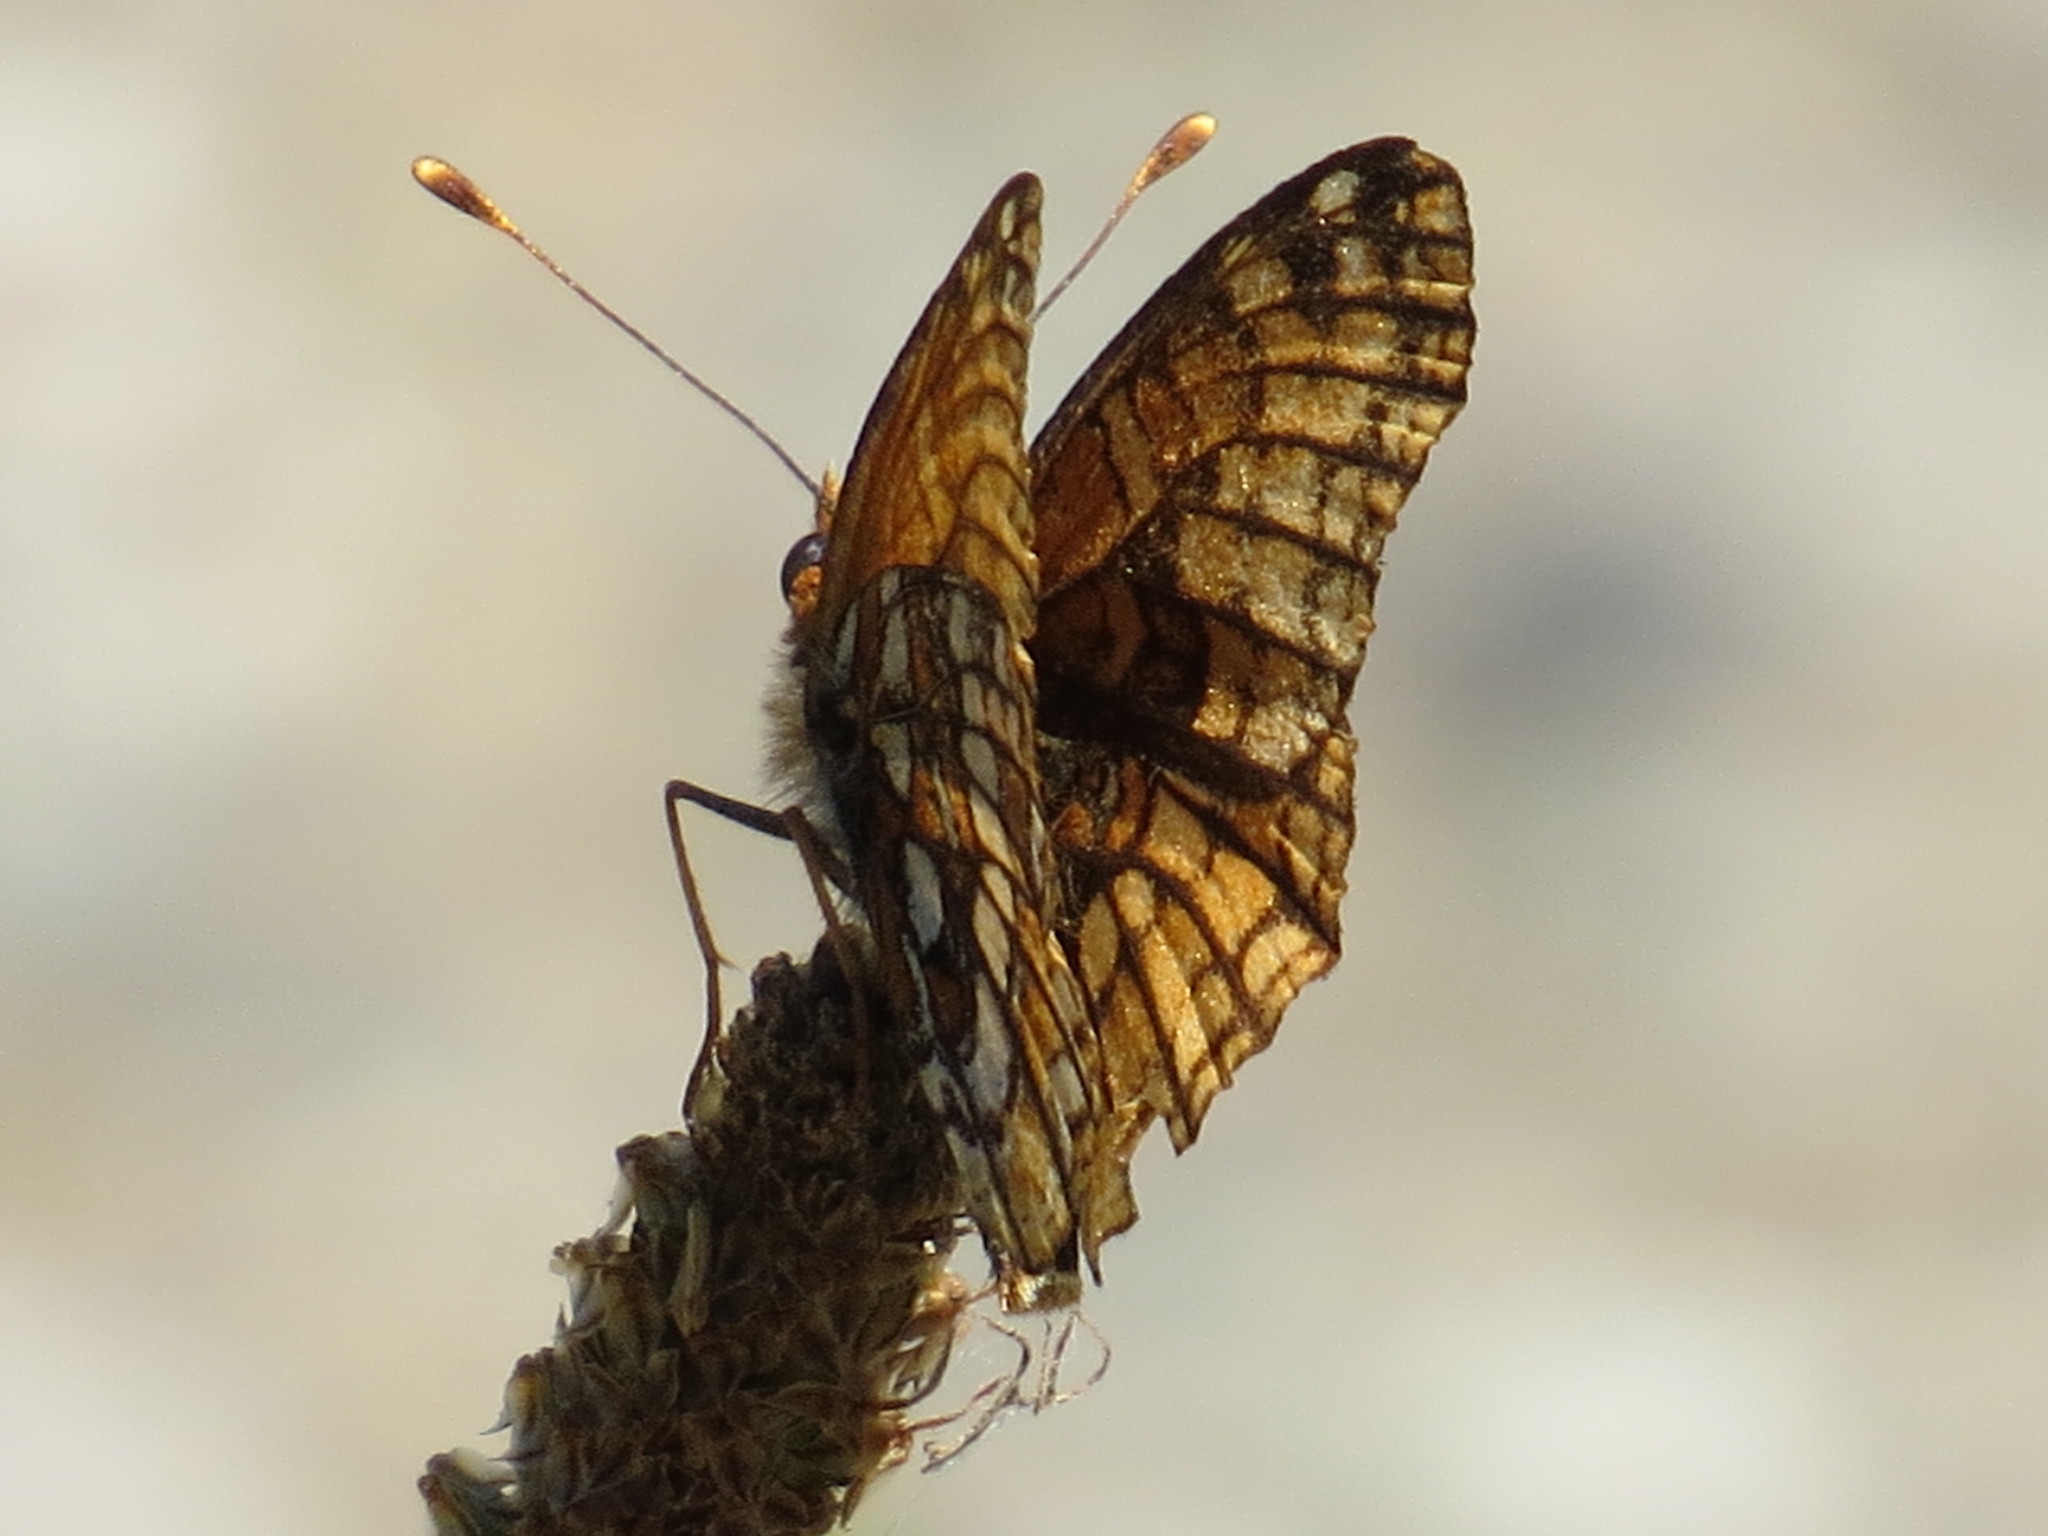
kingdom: Animalia
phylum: Arthropoda
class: Insecta
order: Lepidoptera
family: Nymphalidae
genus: Chlosyne
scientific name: Chlosyne palla
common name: Northern checkerspot
